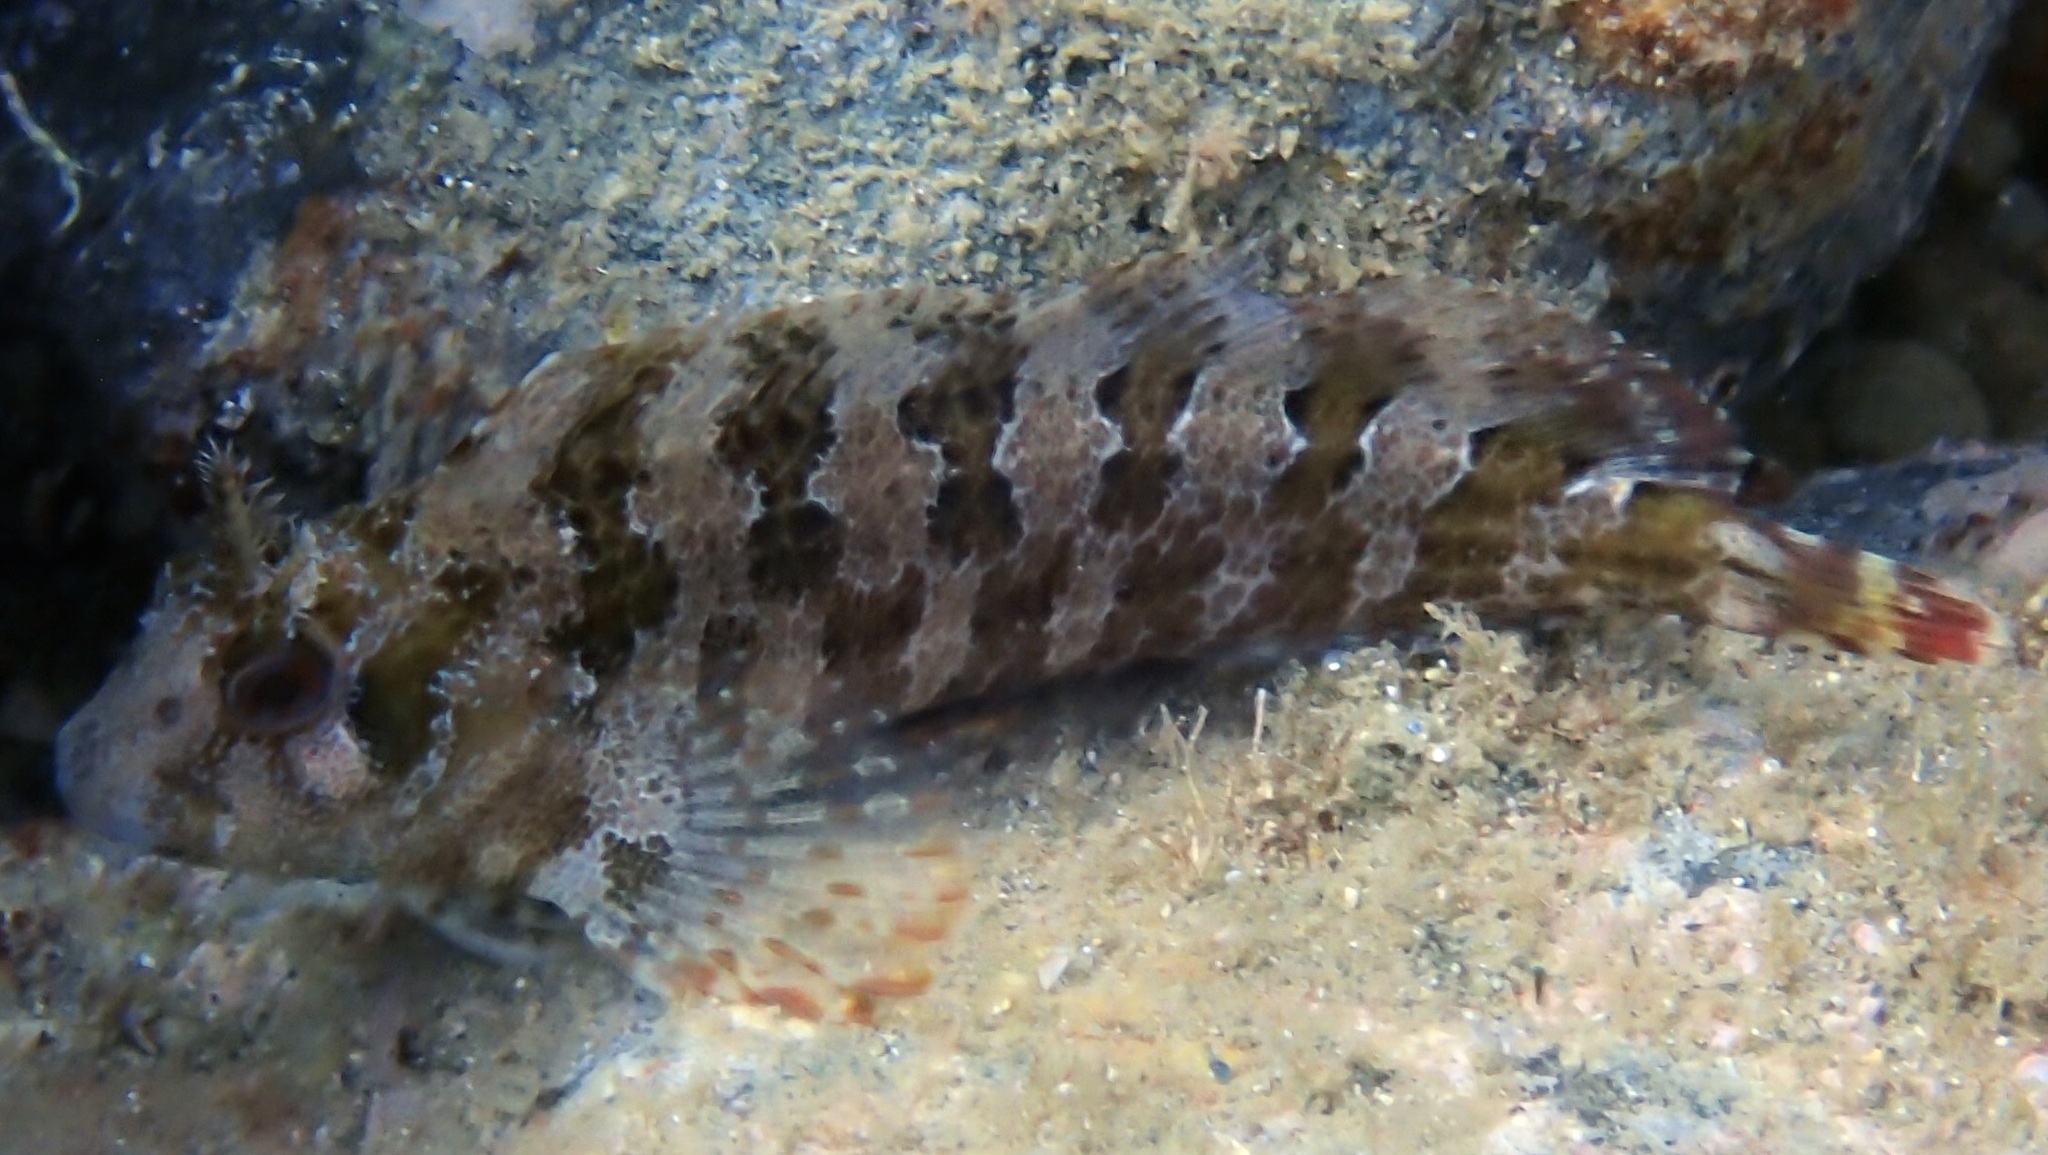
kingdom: Animalia
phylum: Chordata
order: Perciformes
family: Blenniidae
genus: Parablennius
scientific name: Parablennius gattorugine
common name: Tompot blenny
